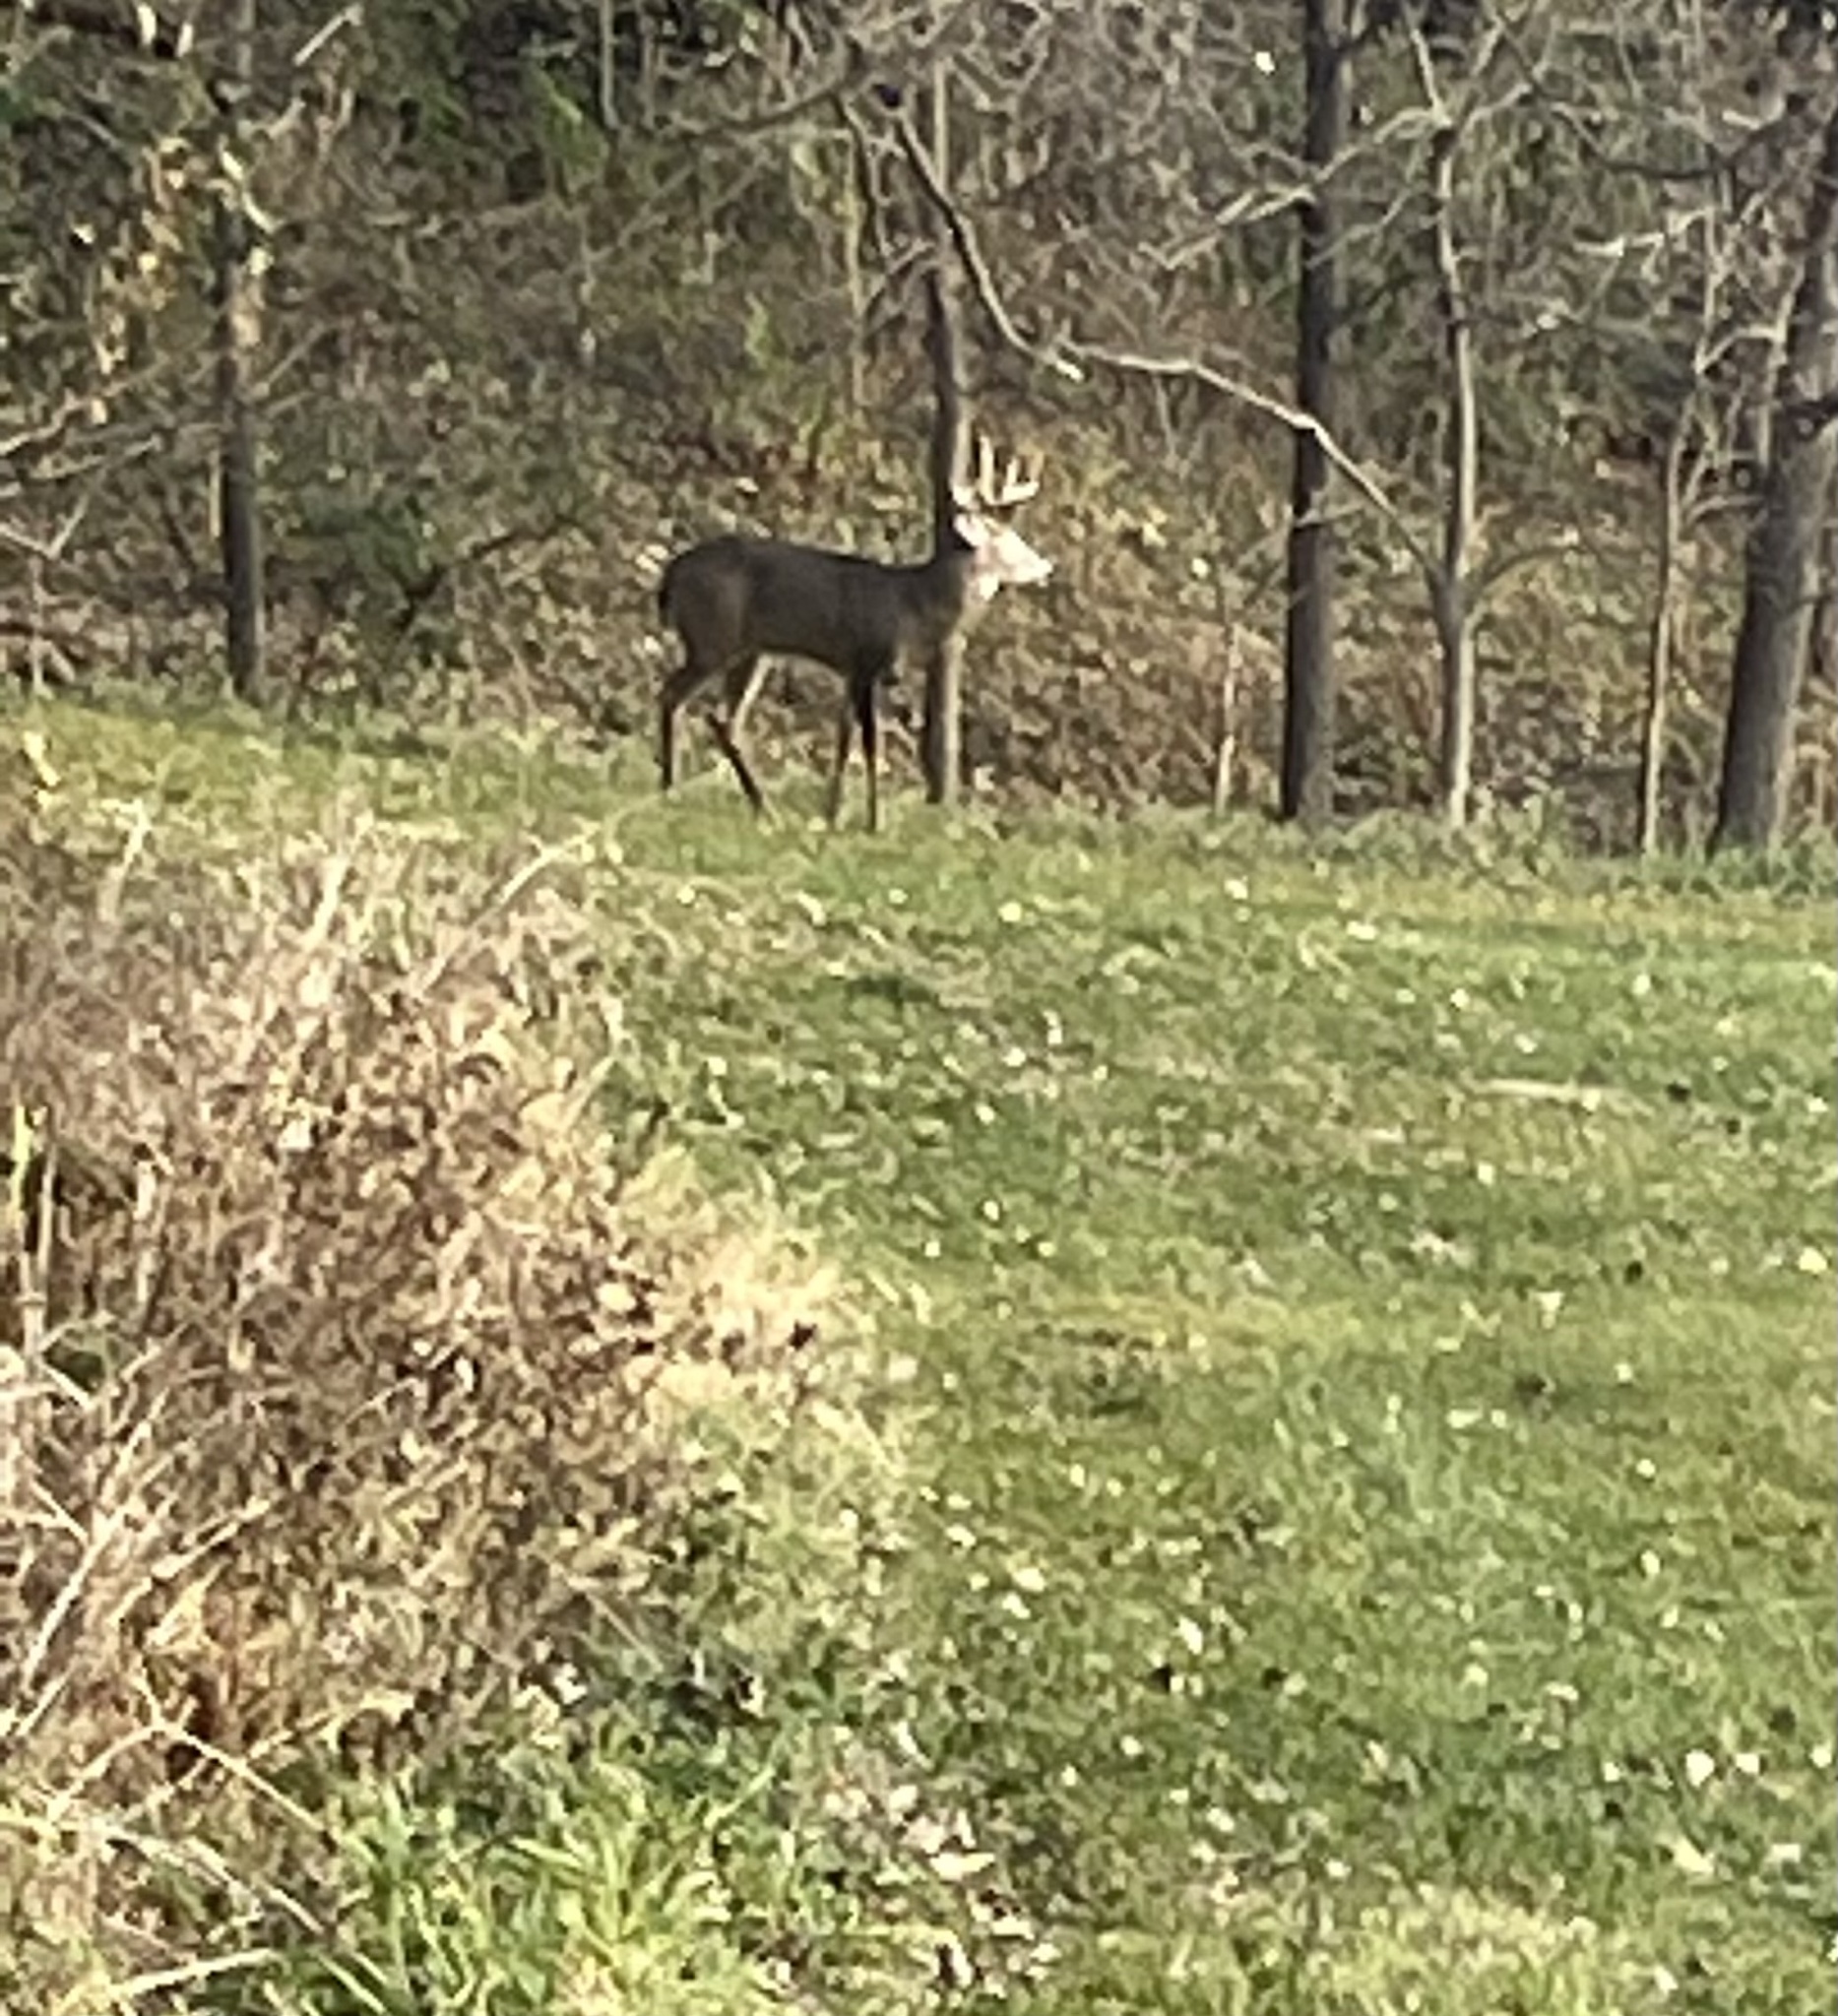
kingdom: Animalia
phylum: Chordata
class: Mammalia
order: Artiodactyla
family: Cervidae
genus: Odocoileus
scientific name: Odocoileus virginianus
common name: White-tailed deer
